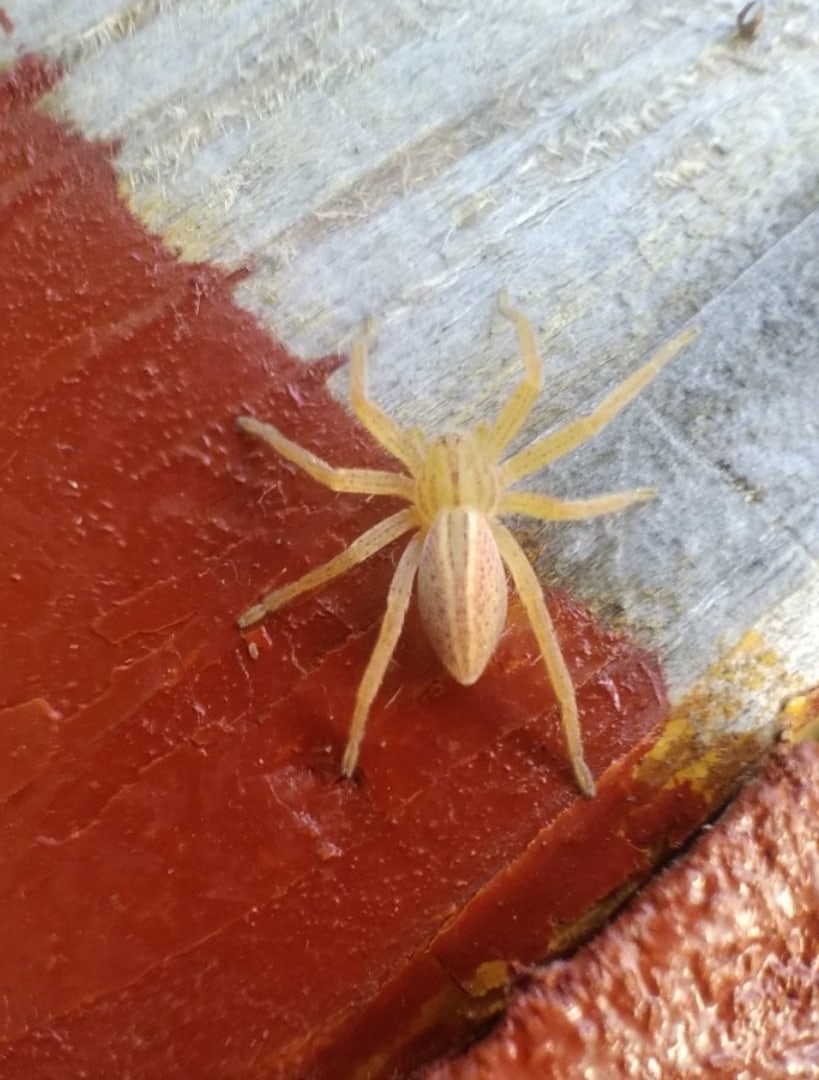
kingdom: Animalia
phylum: Arthropoda
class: Arachnida
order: Araneae
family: Sparassidae
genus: Micrommata
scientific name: Micrommata virescens
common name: Green spider
